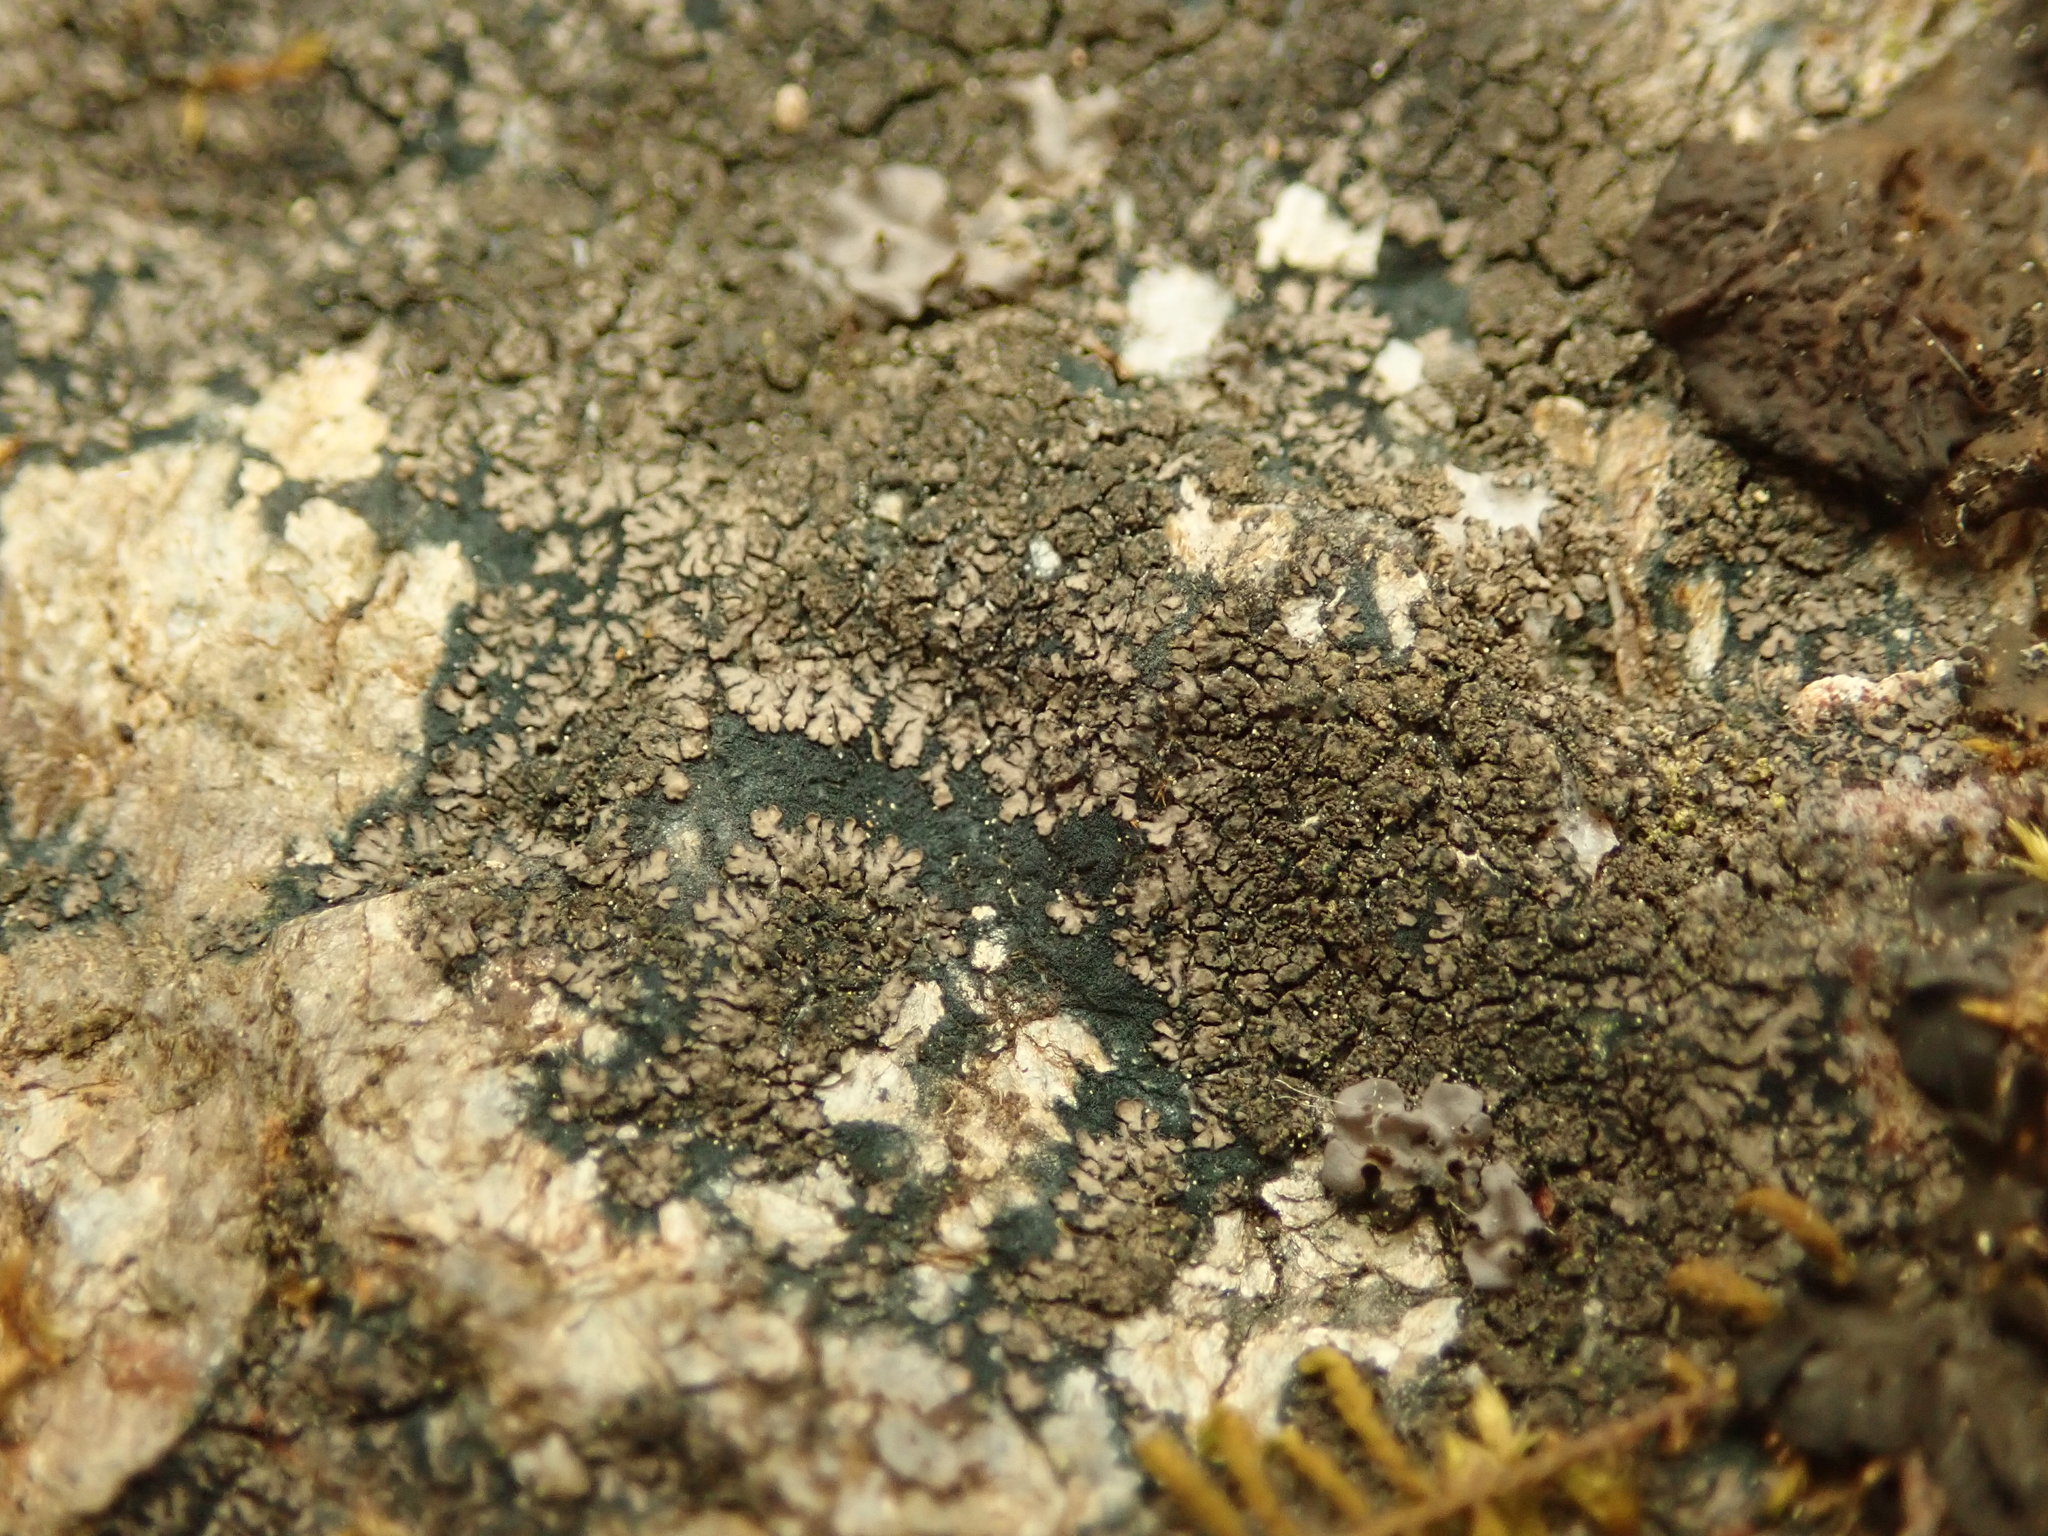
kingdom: Fungi
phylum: Ascomycota
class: Lecanoromycetes
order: Peltigerales
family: Pannariaceae
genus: Parmeliella
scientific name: Parmeliella thriptophylla
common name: Black-bordered shingle lichen
